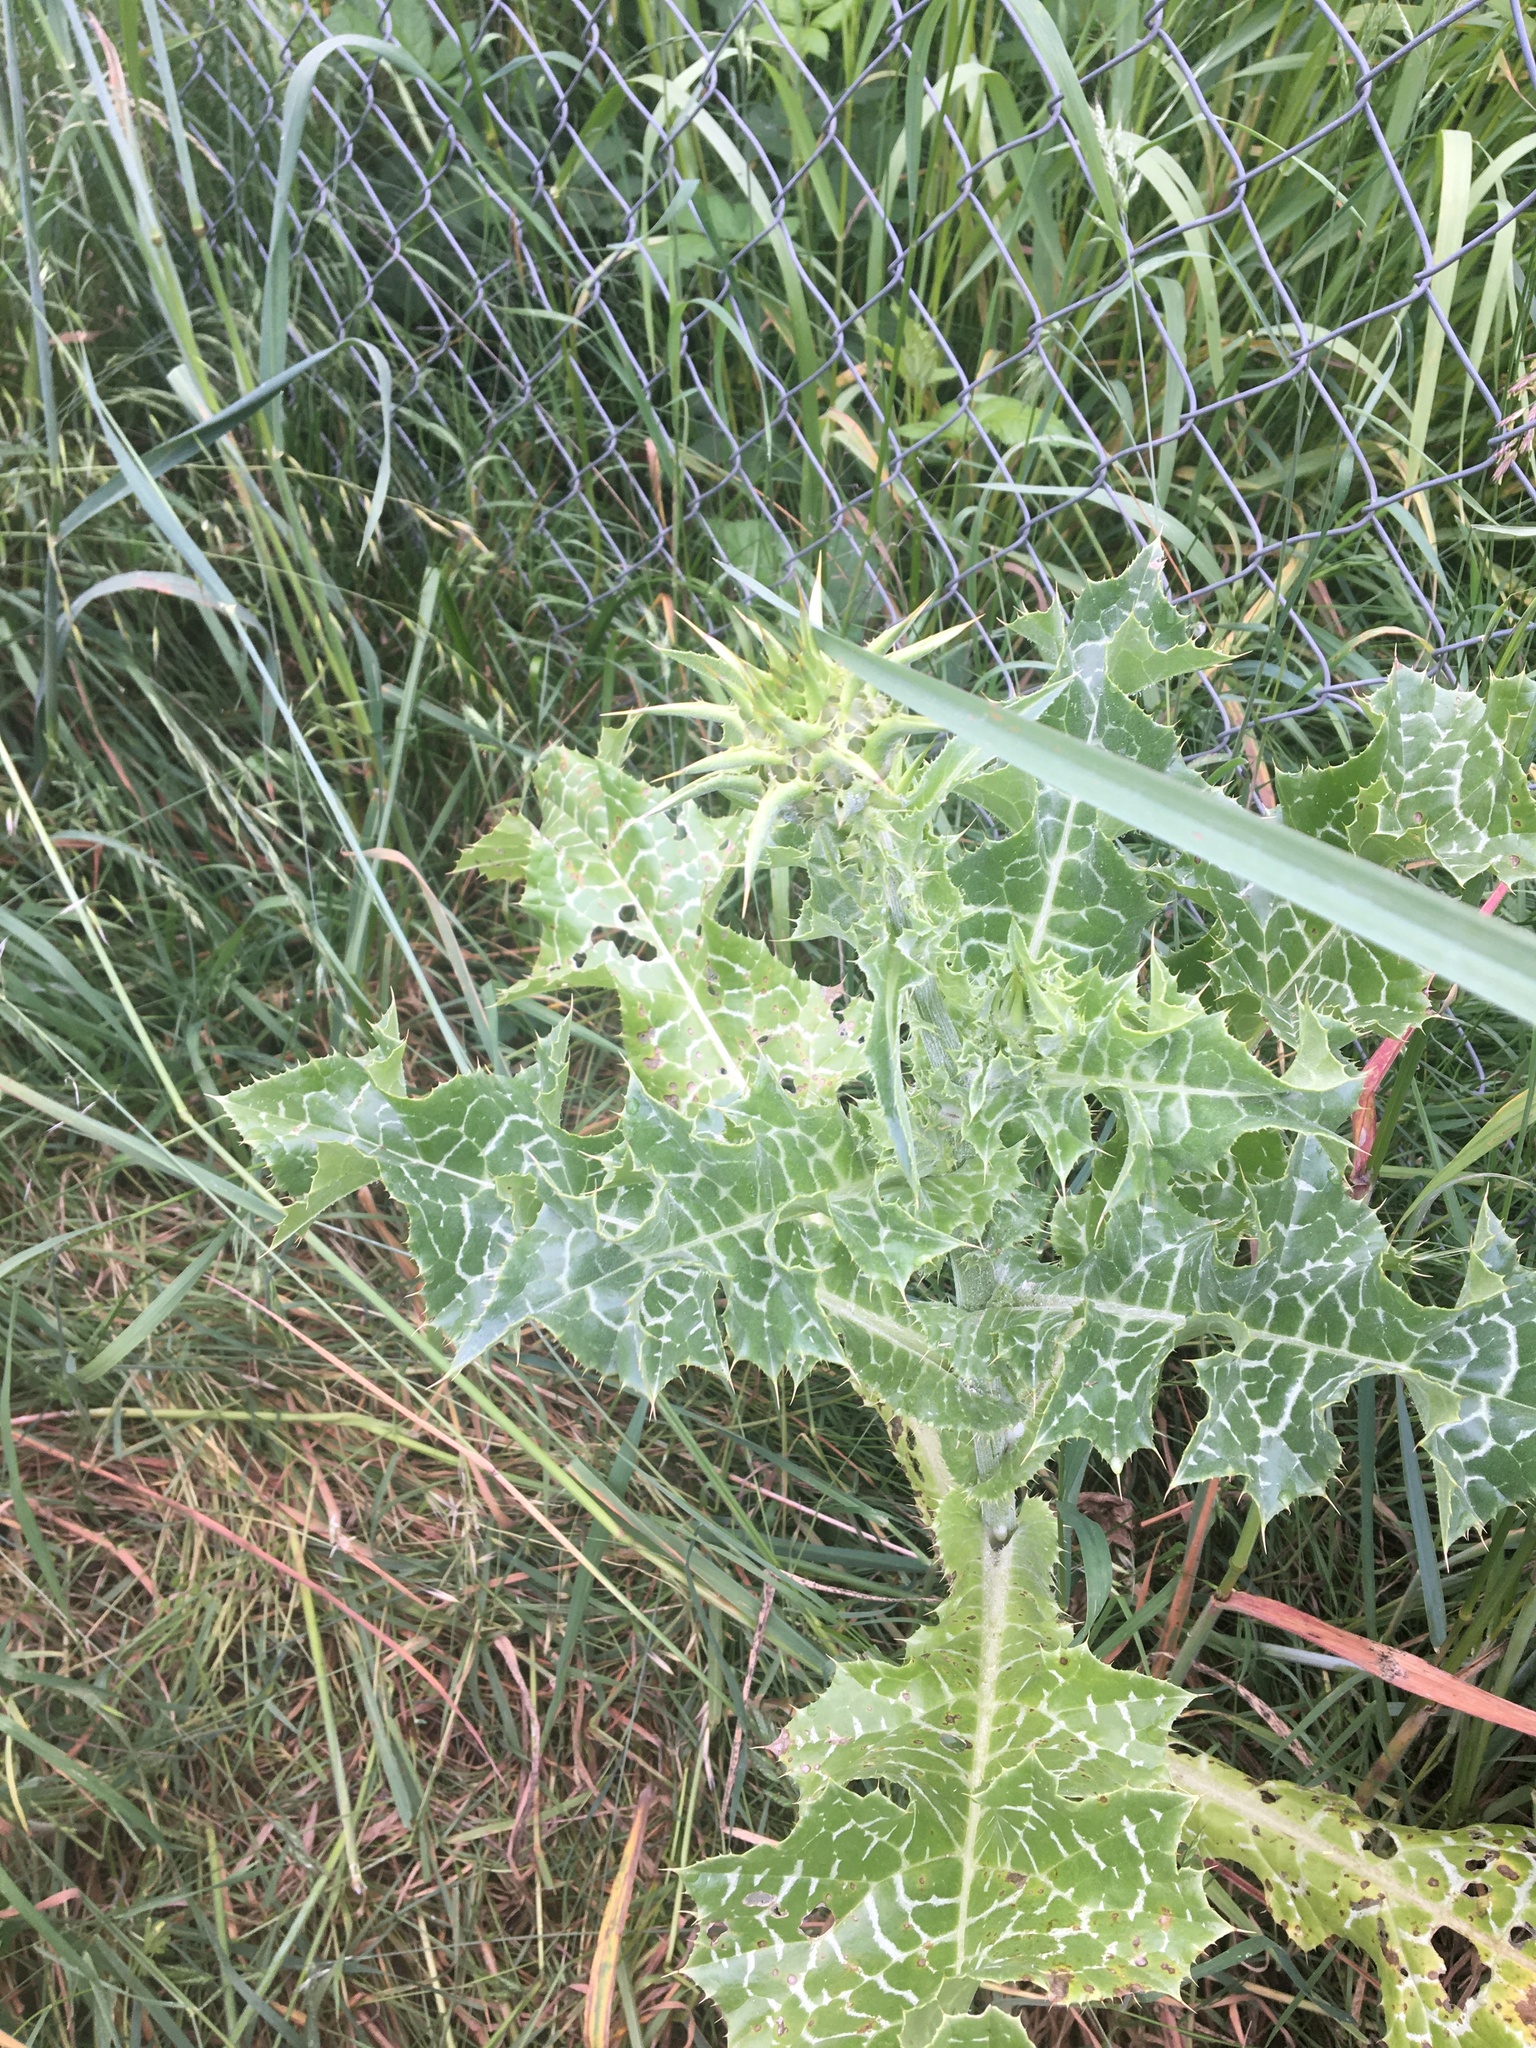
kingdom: Plantae
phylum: Tracheophyta
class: Magnoliopsida
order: Asterales
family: Asteraceae
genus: Silybum
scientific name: Silybum marianum
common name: Milk thistle
